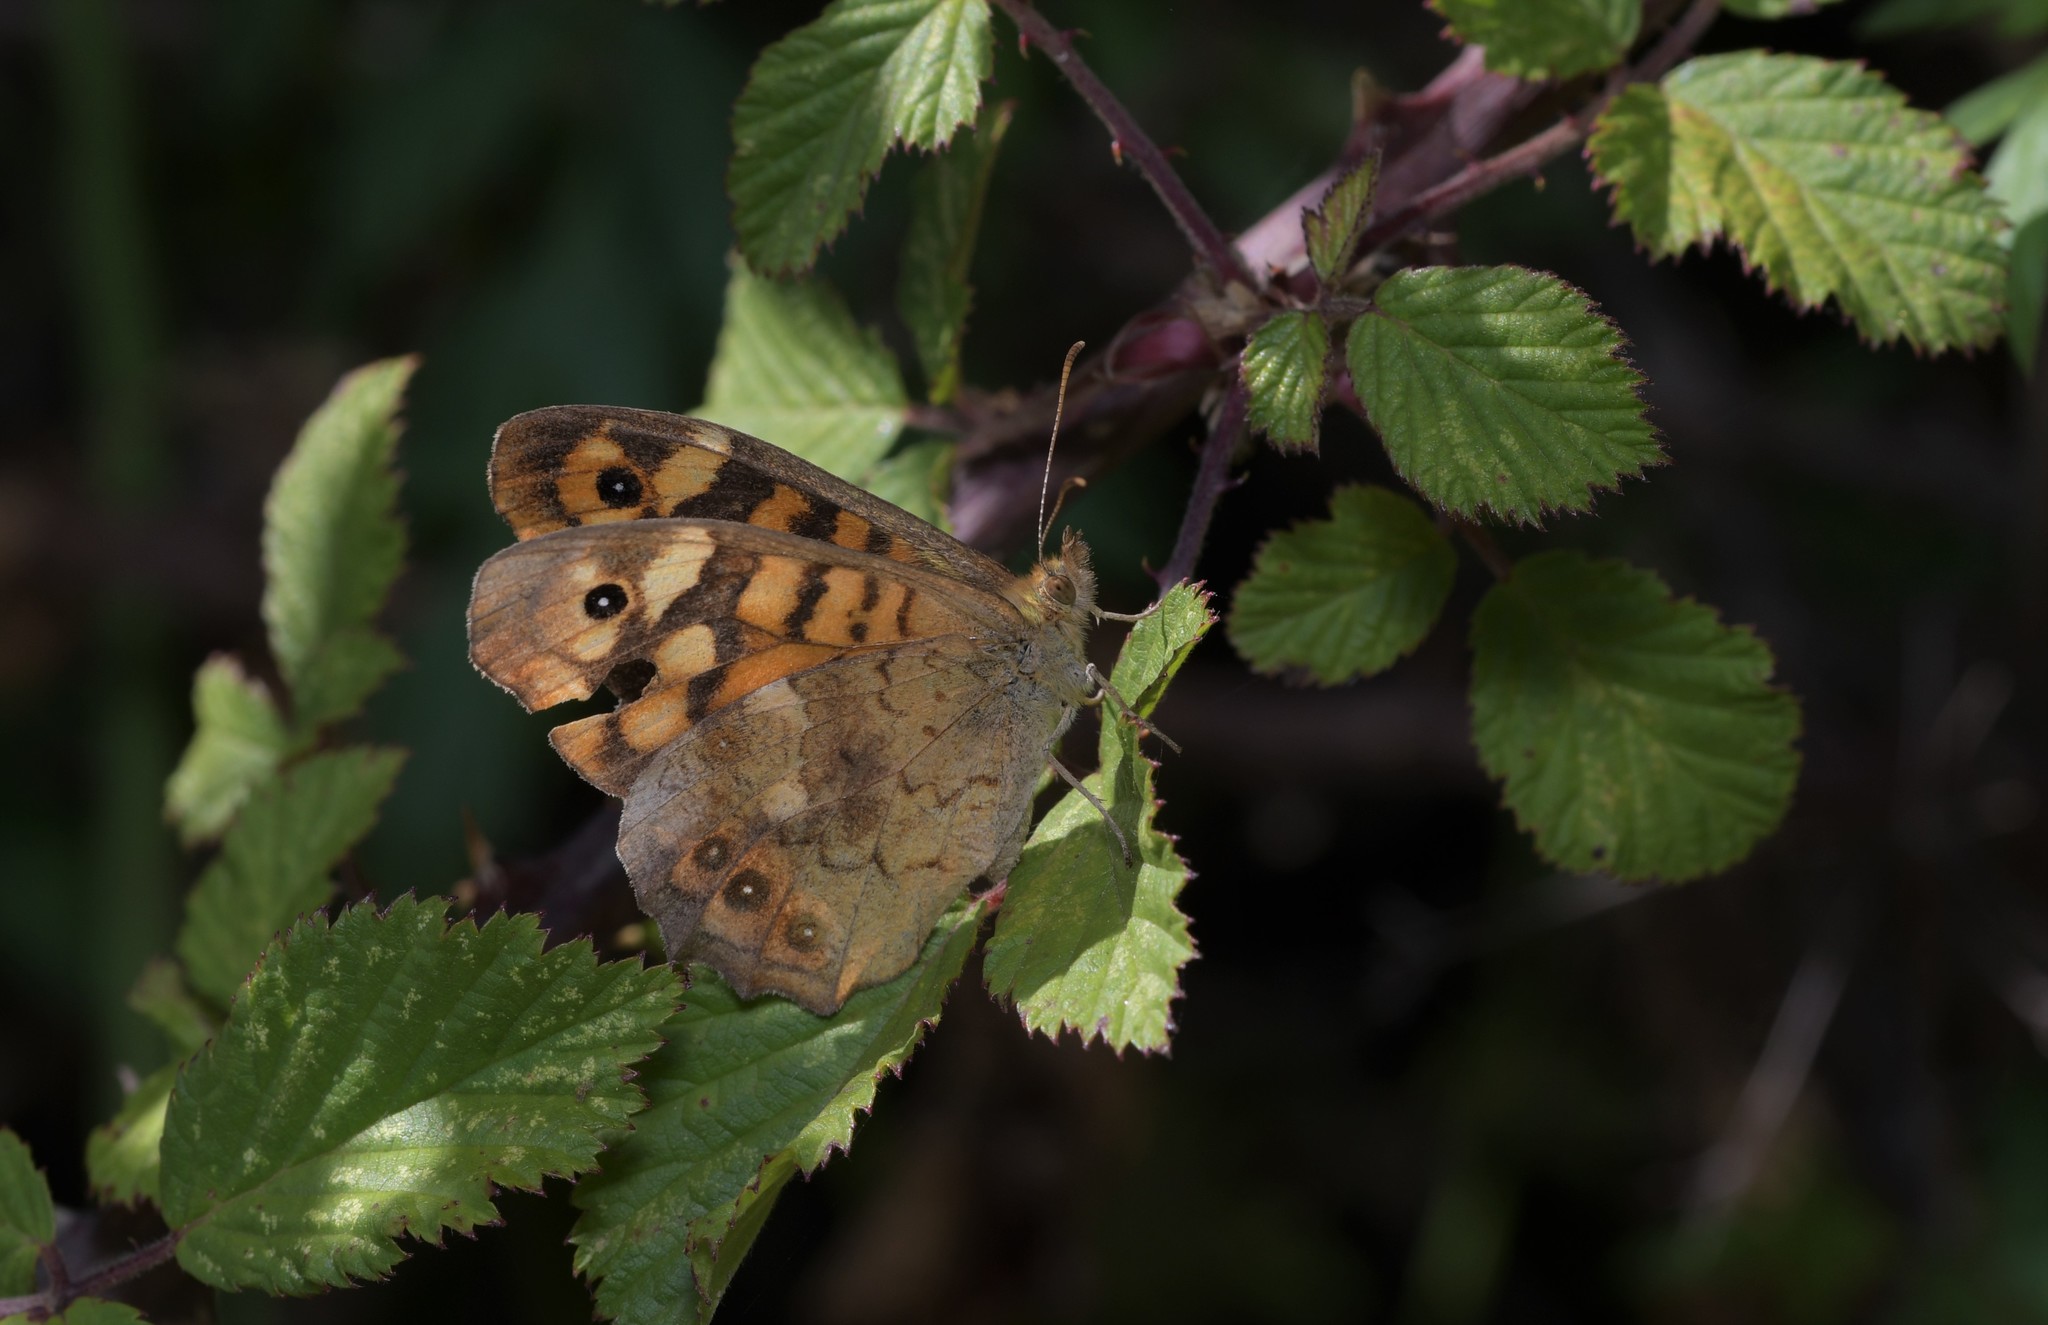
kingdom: Animalia
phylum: Arthropoda
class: Insecta
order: Lepidoptera
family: Nymphalidae
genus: Pararge
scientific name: Pararge aegeria
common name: Speckled wood
